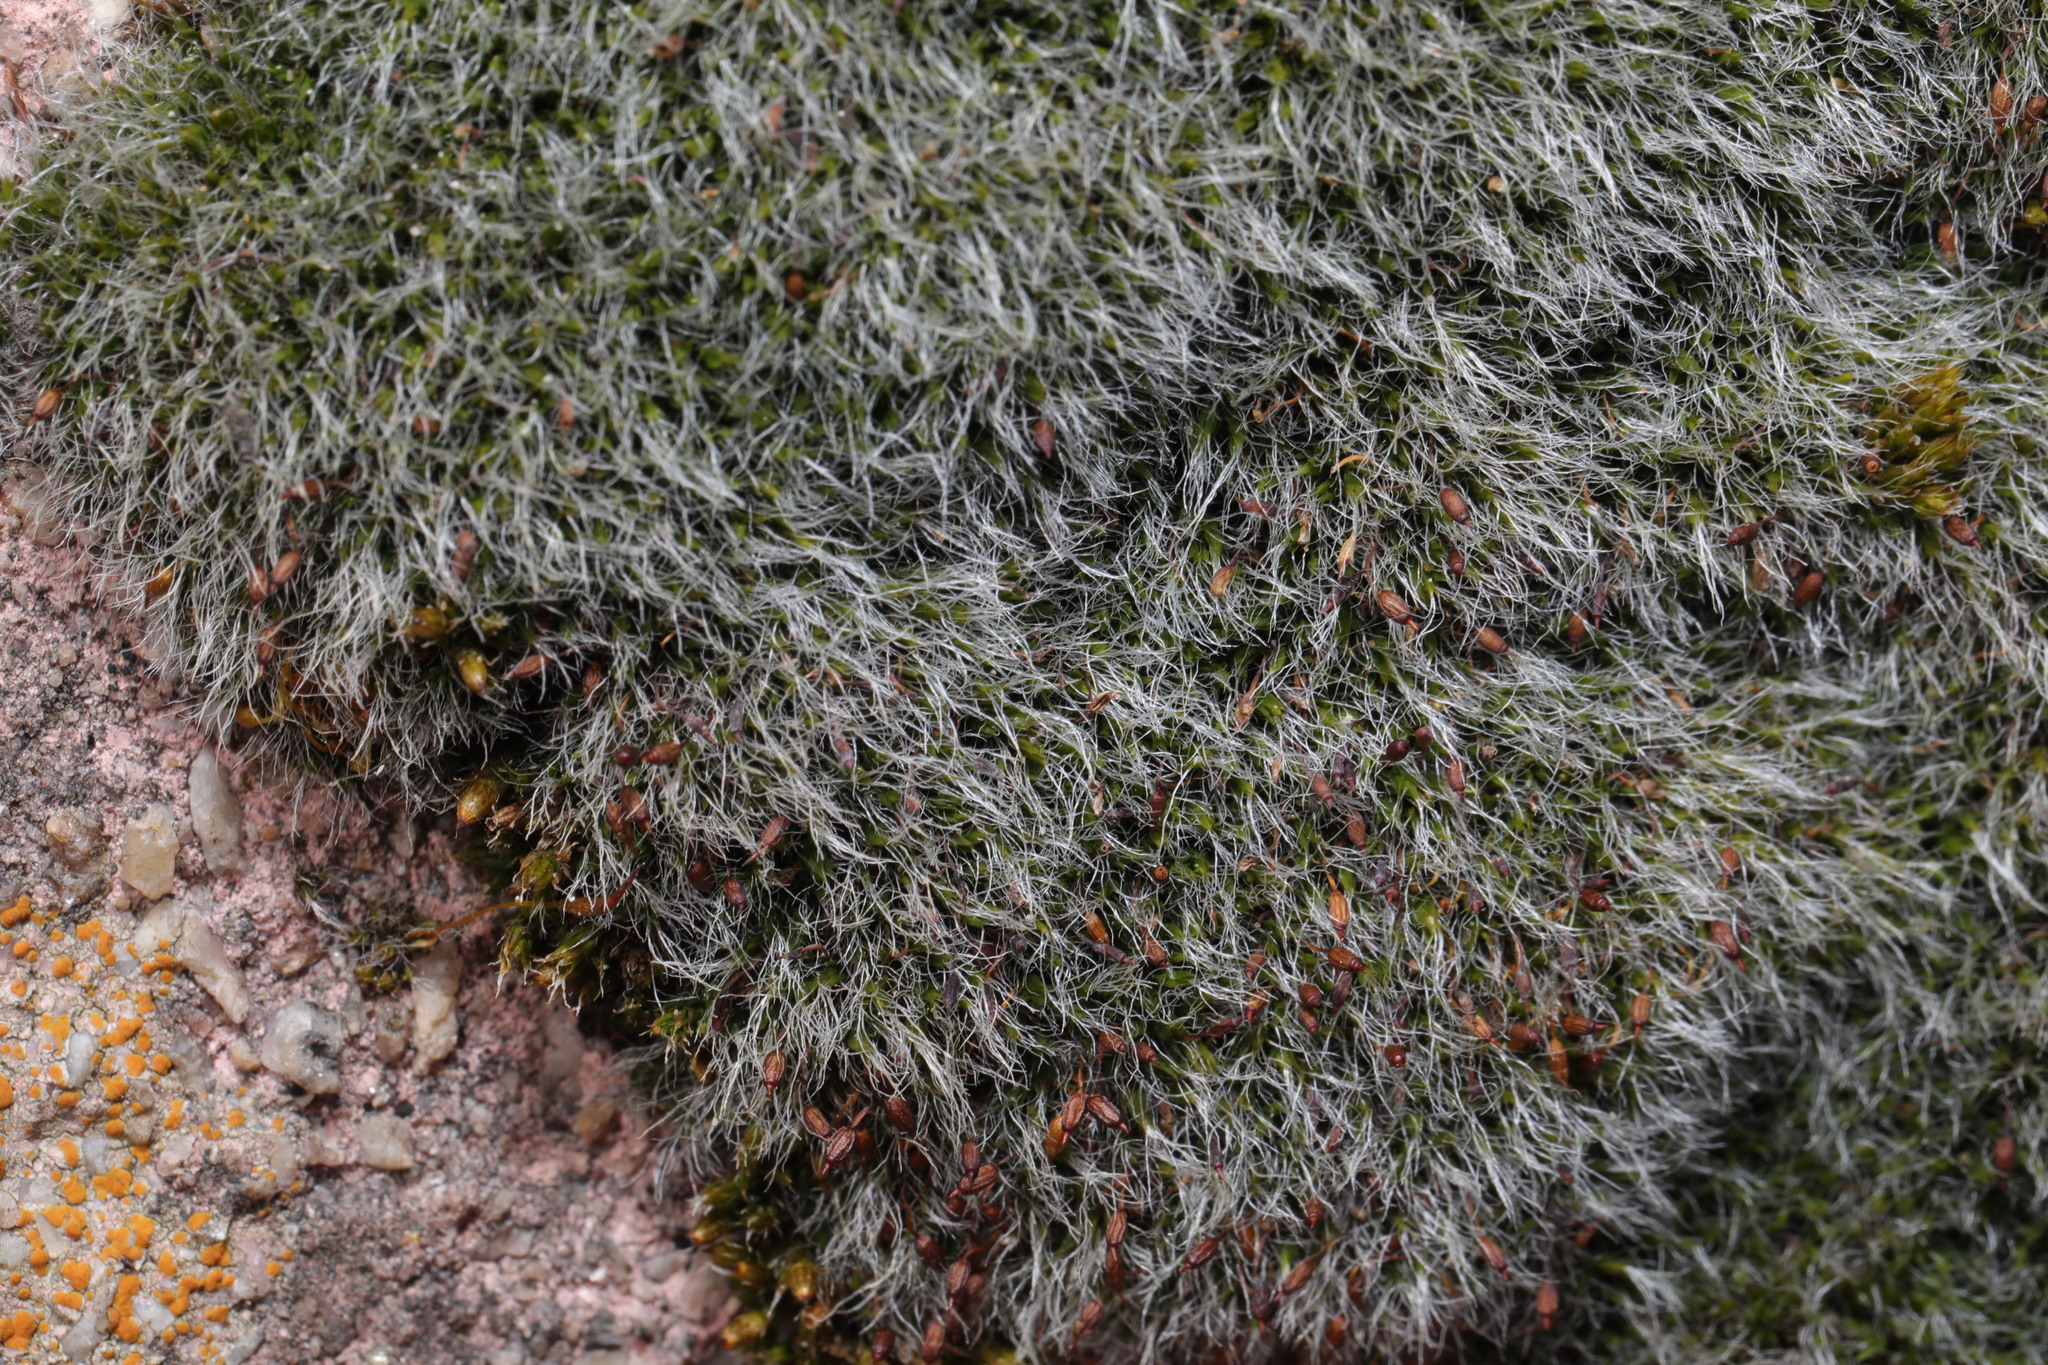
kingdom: Plantae
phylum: Bryophyta
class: Bryopsida
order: Grimmiales
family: Grimmiaceae
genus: Grimmia
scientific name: Grimmia pulvinata
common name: Grey-cushioned grimmia
